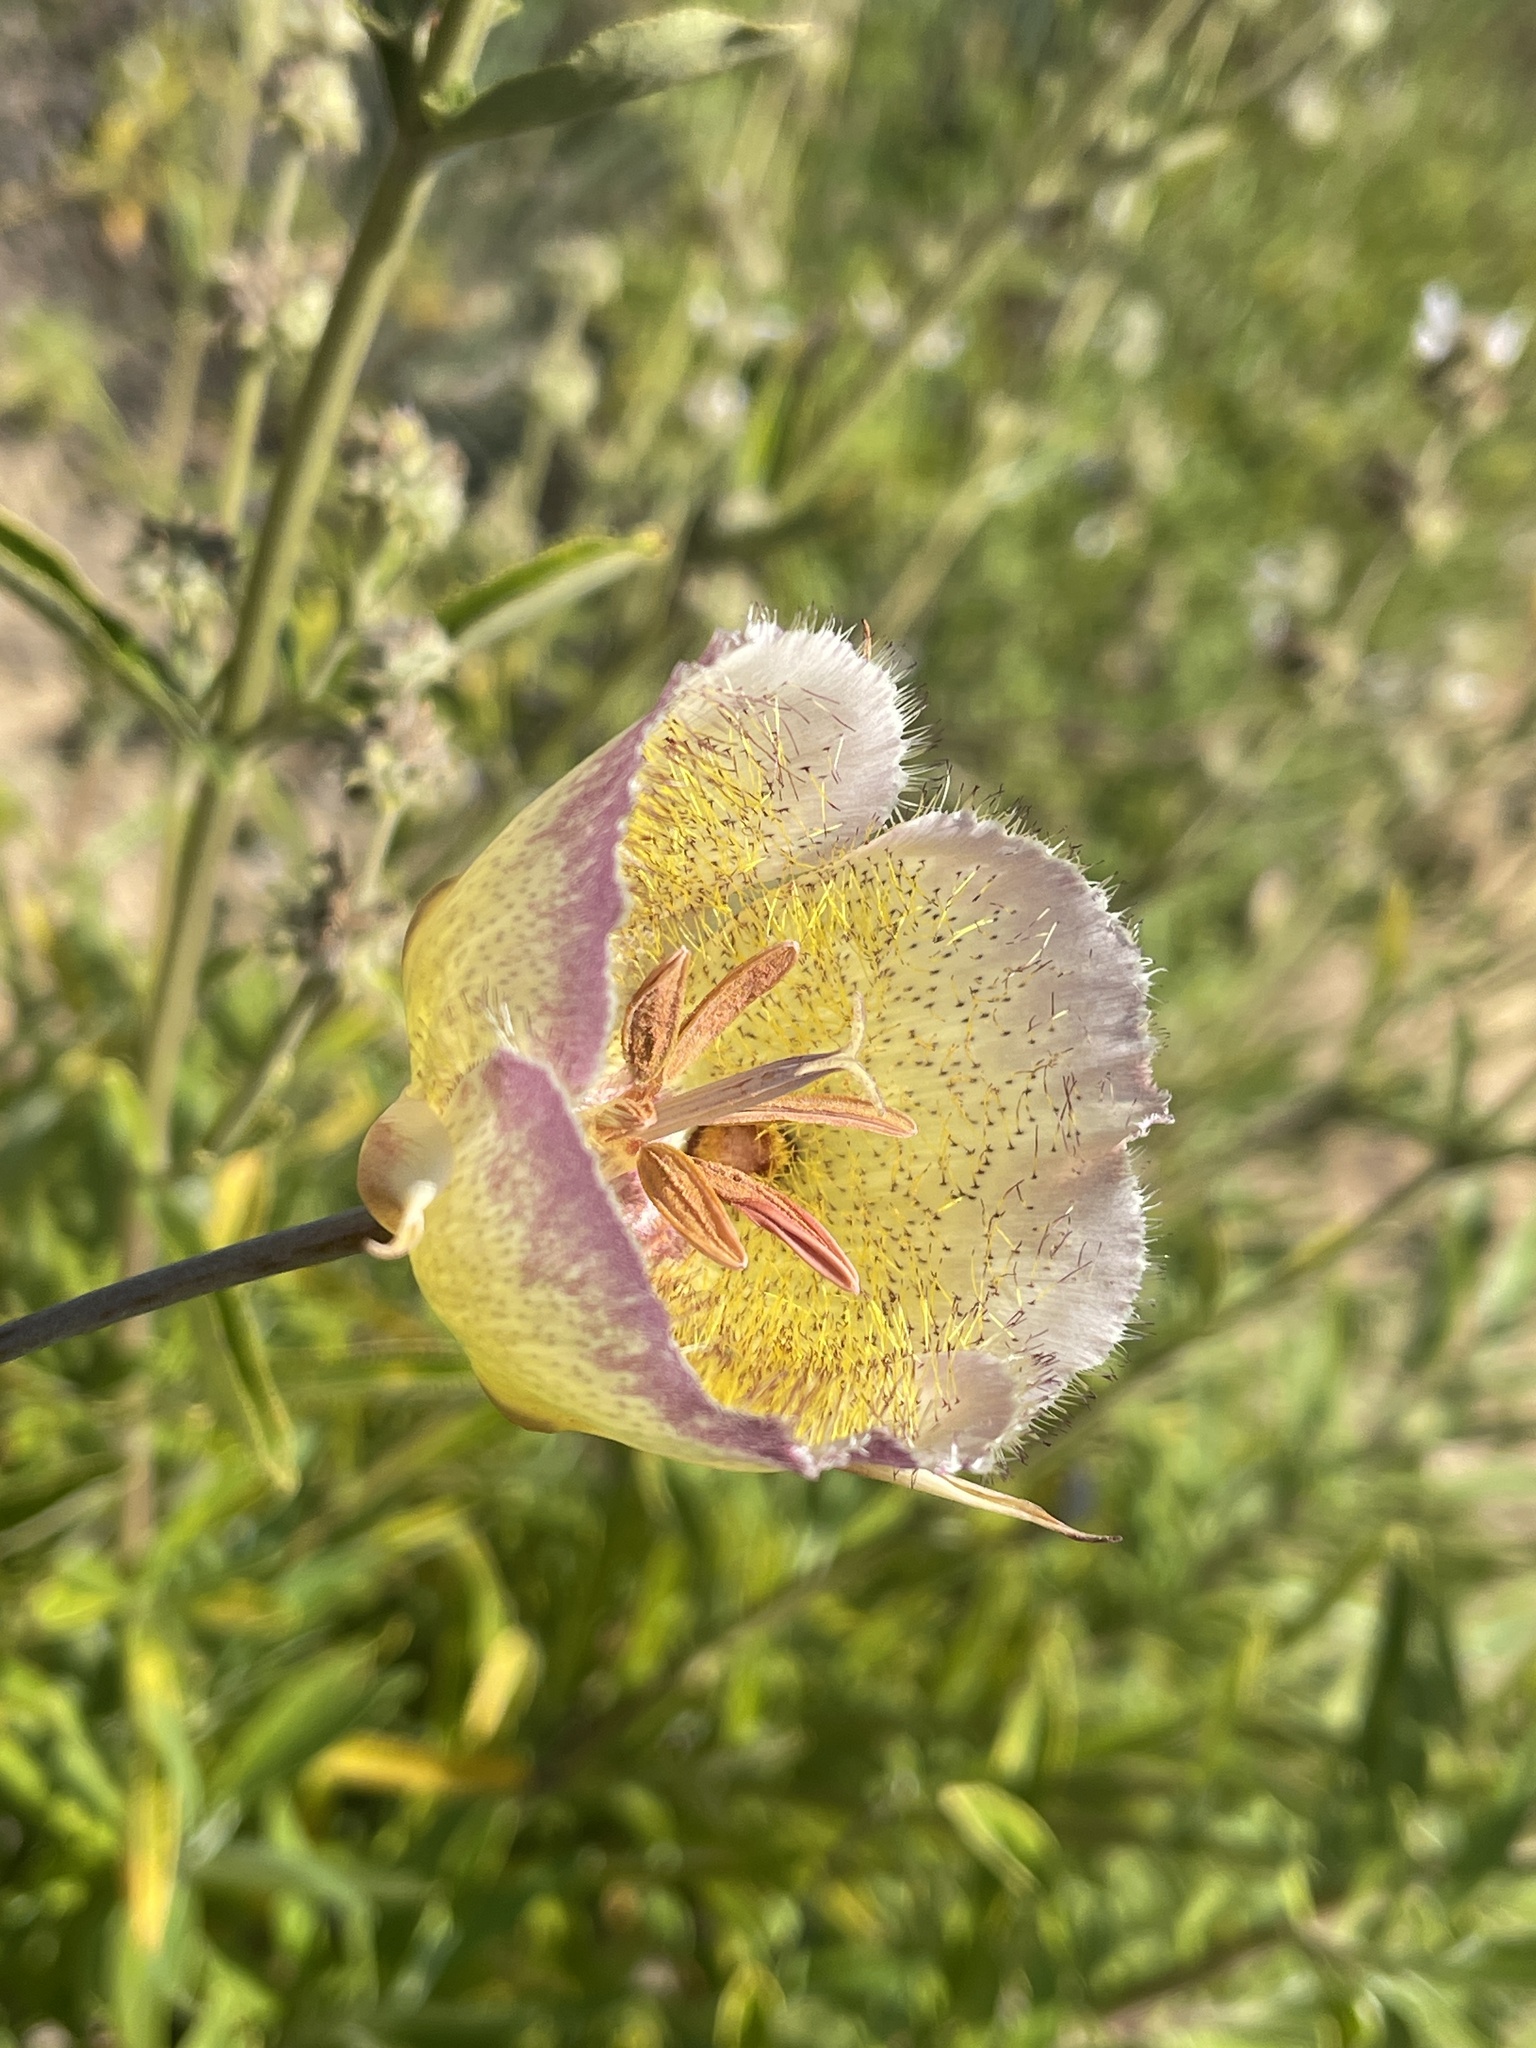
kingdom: Plantae
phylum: Tracheophyta
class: Liliopsida
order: Liliales
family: Liliaceae
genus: Calochortus
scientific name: Calochortus weedii
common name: Weed's mariposa-lily
